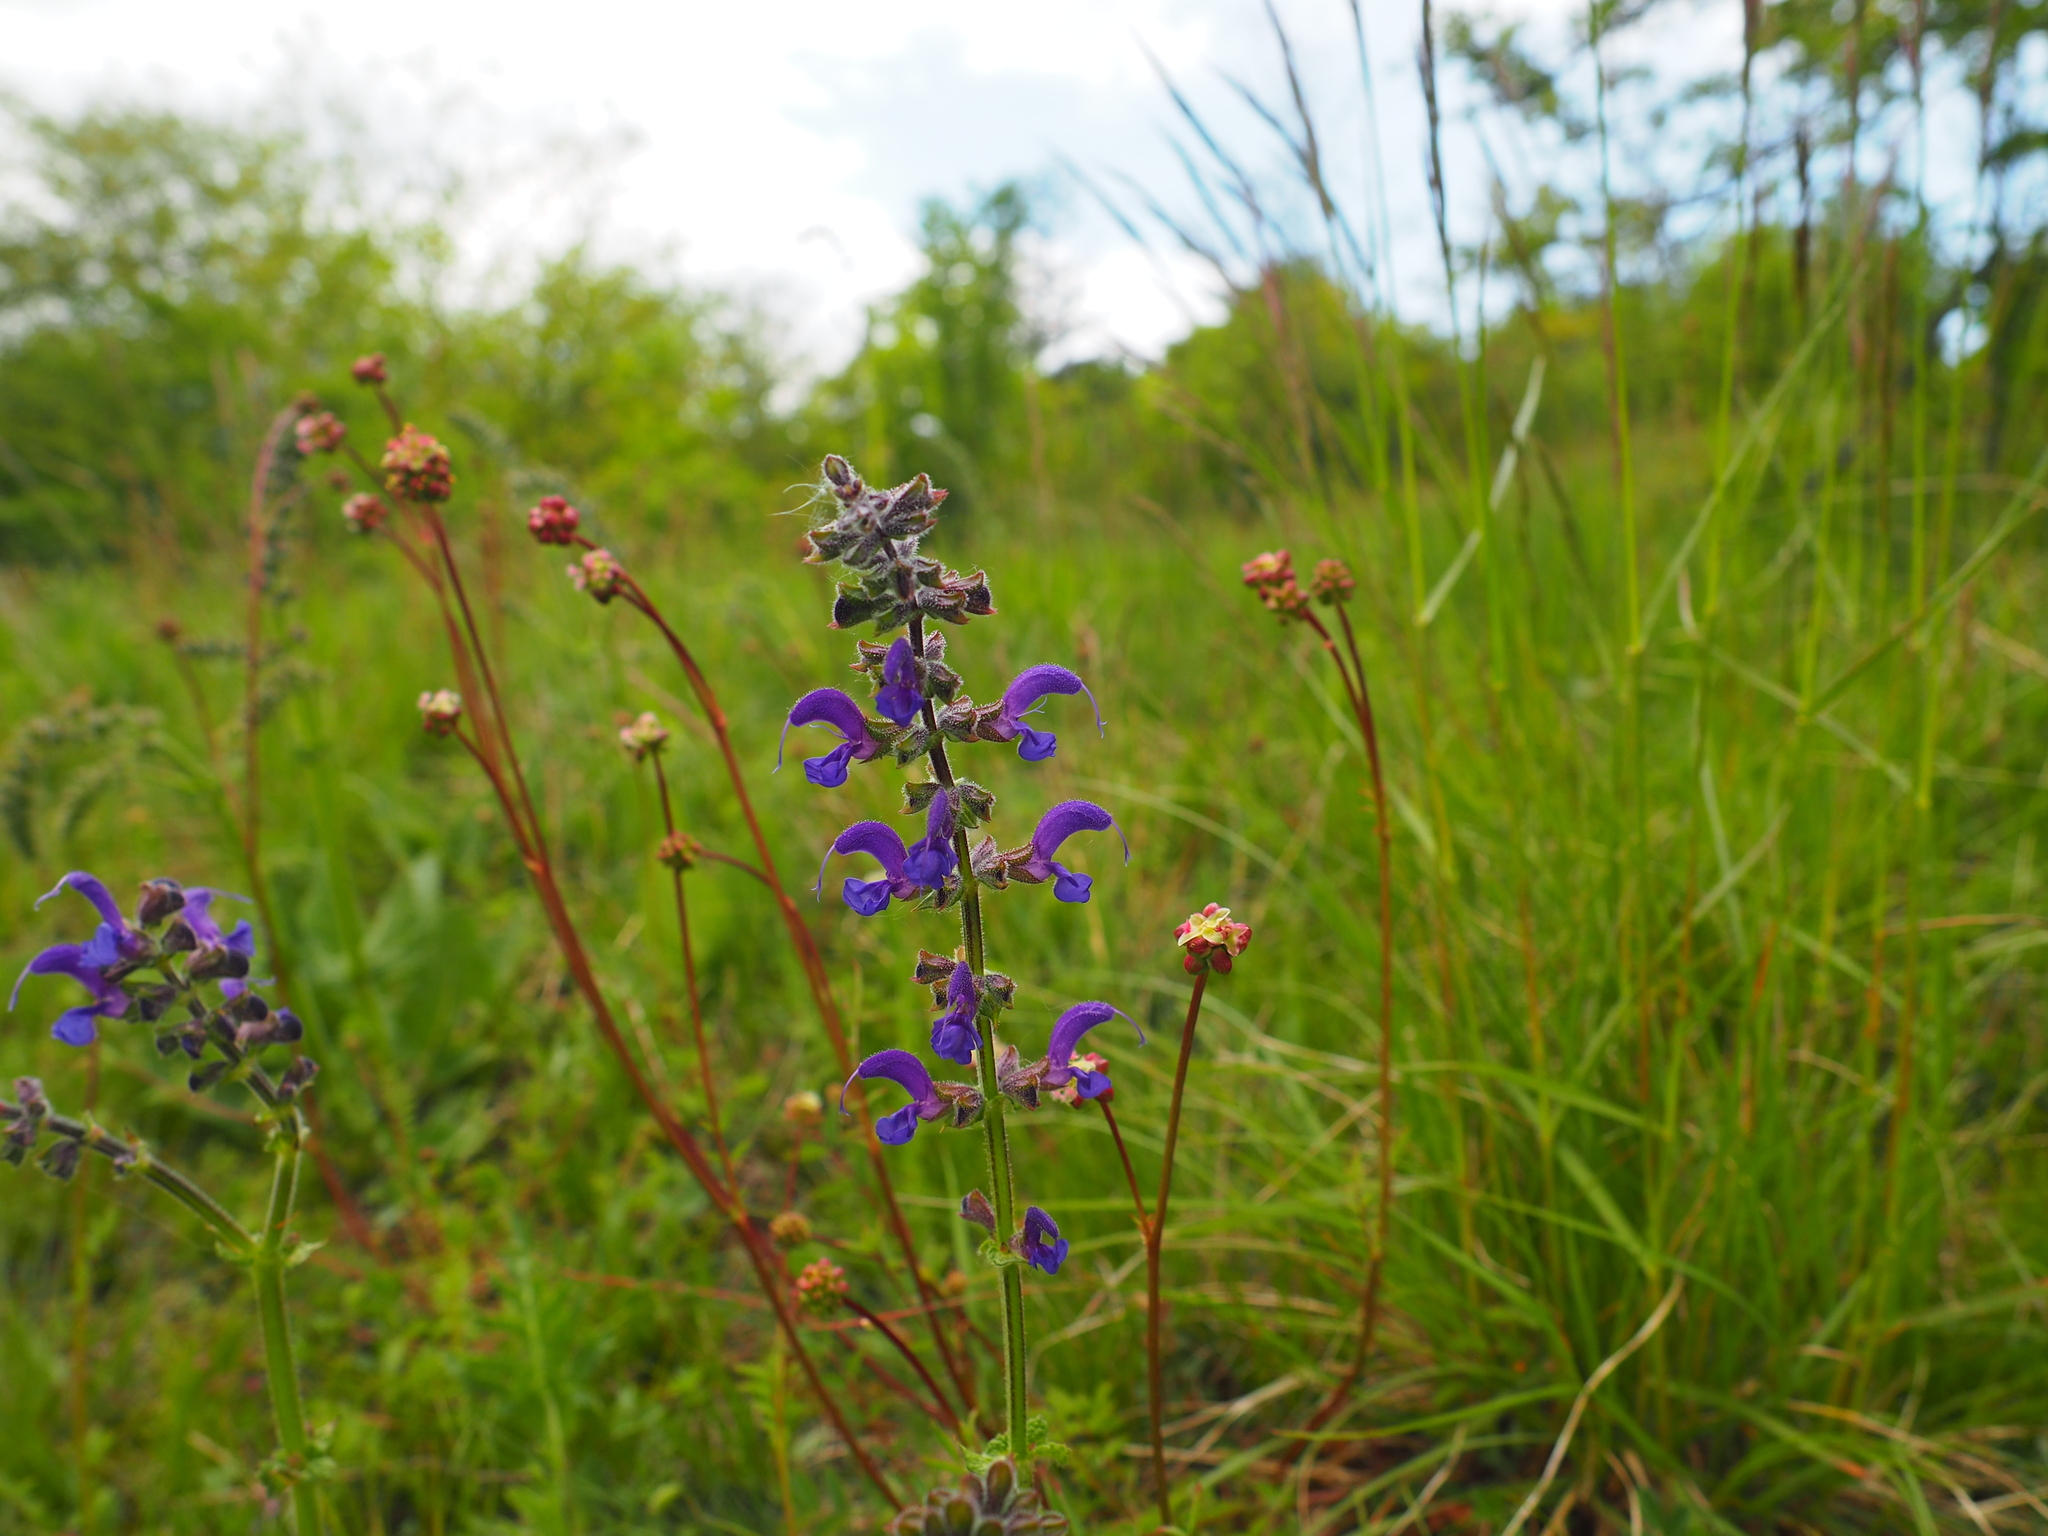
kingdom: Plantae
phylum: Tracheophyta
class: Magnoliopsida
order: Lamiales
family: Lamiaceae
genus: Salvia
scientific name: Salvia pratensis
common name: Meadow sage
